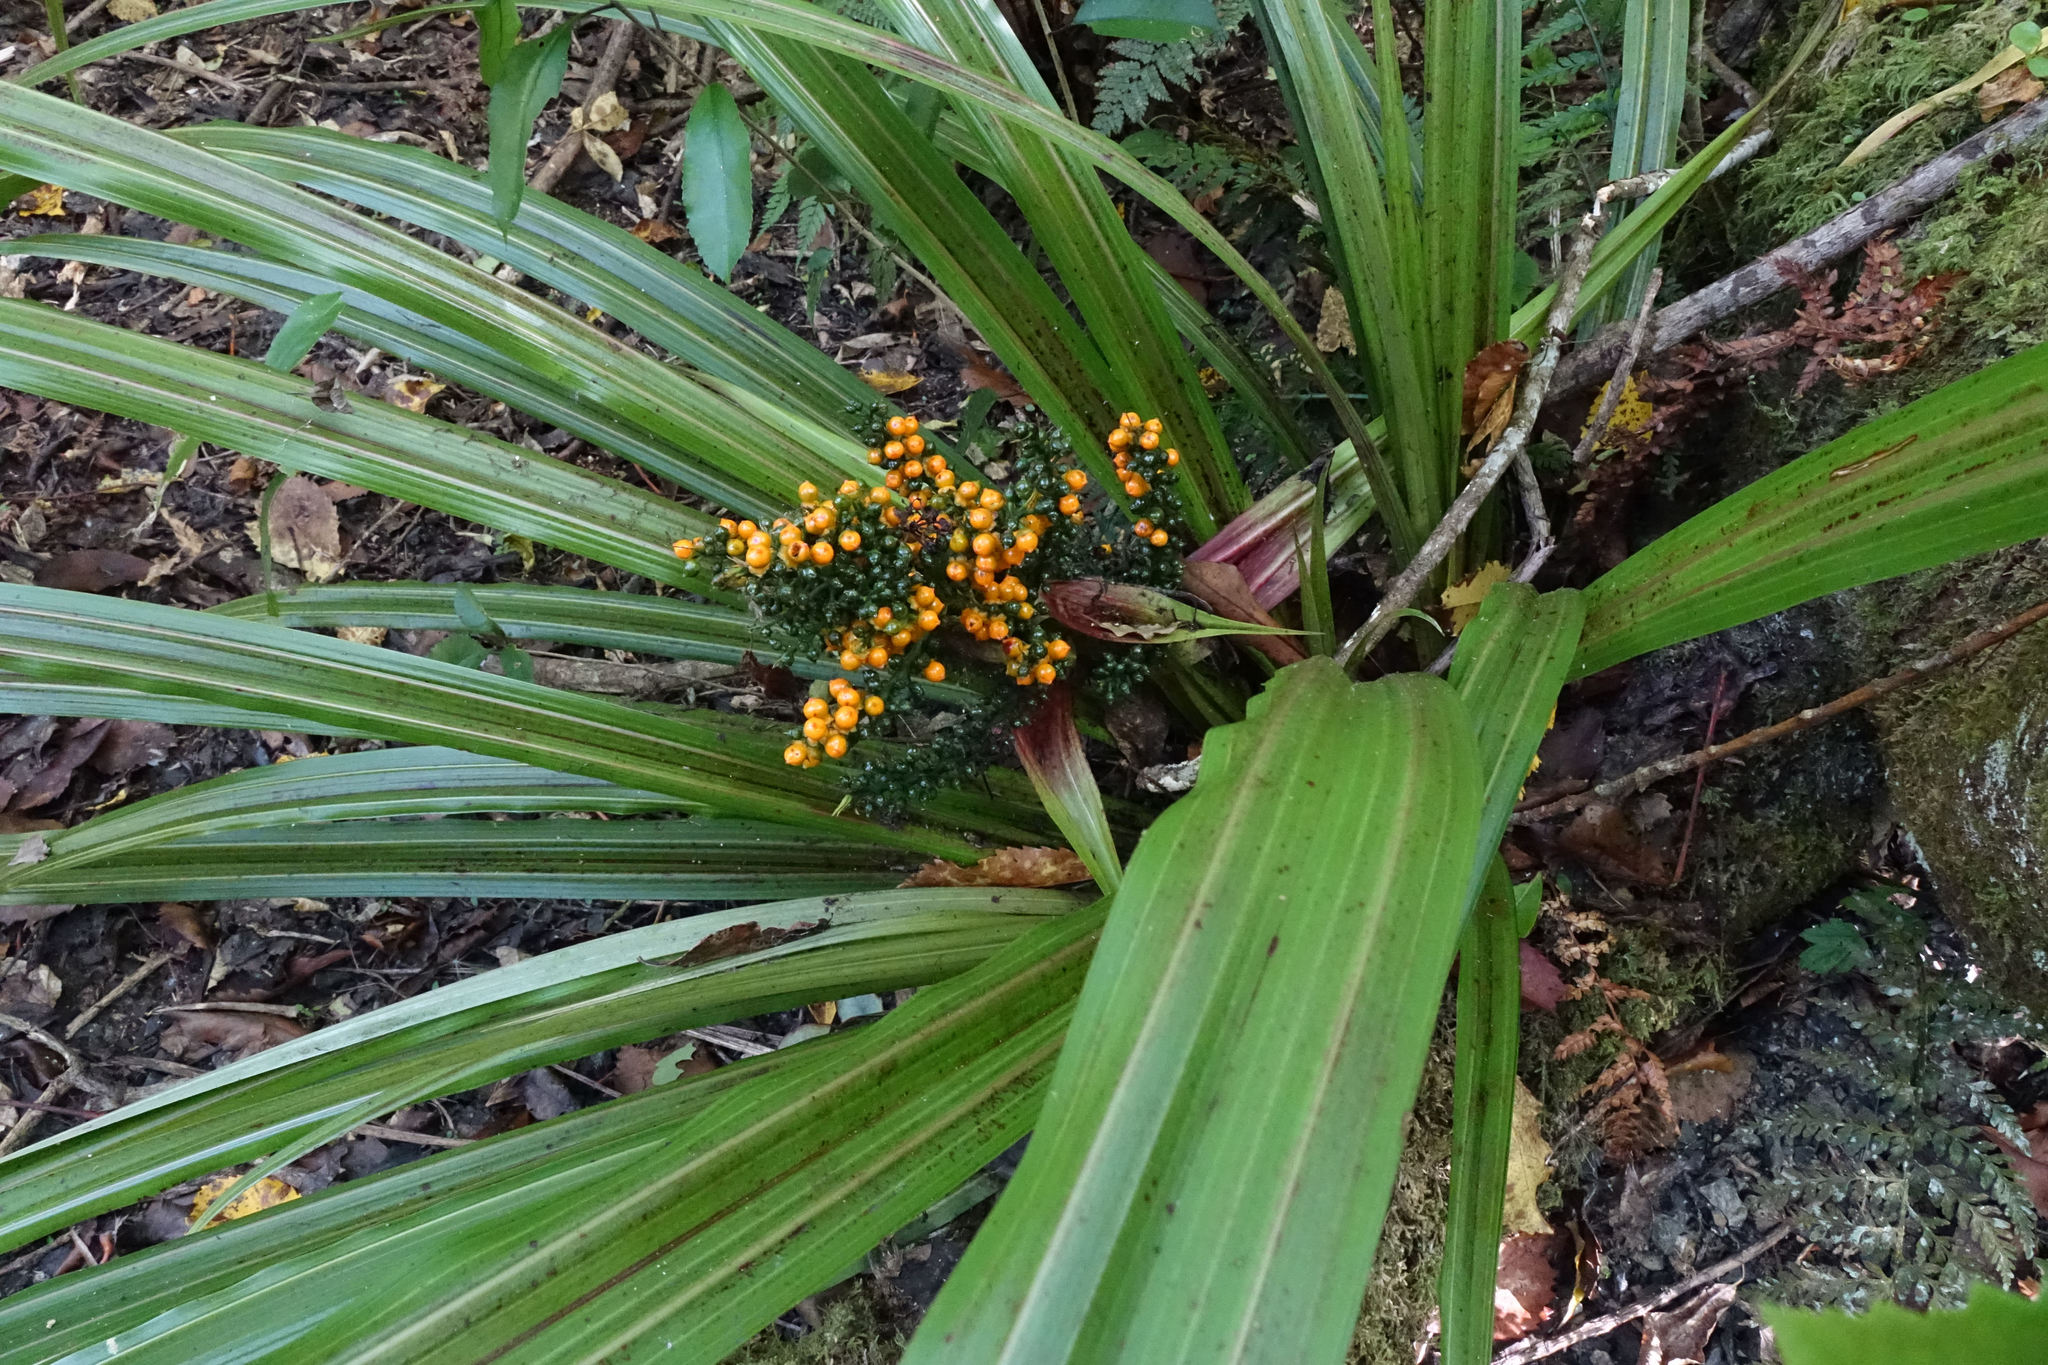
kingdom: Plantae
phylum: Tracheophyta
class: Liliopsida
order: Asparagales
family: Asteliaceae
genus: Astelia
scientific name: Astelia fragrans
